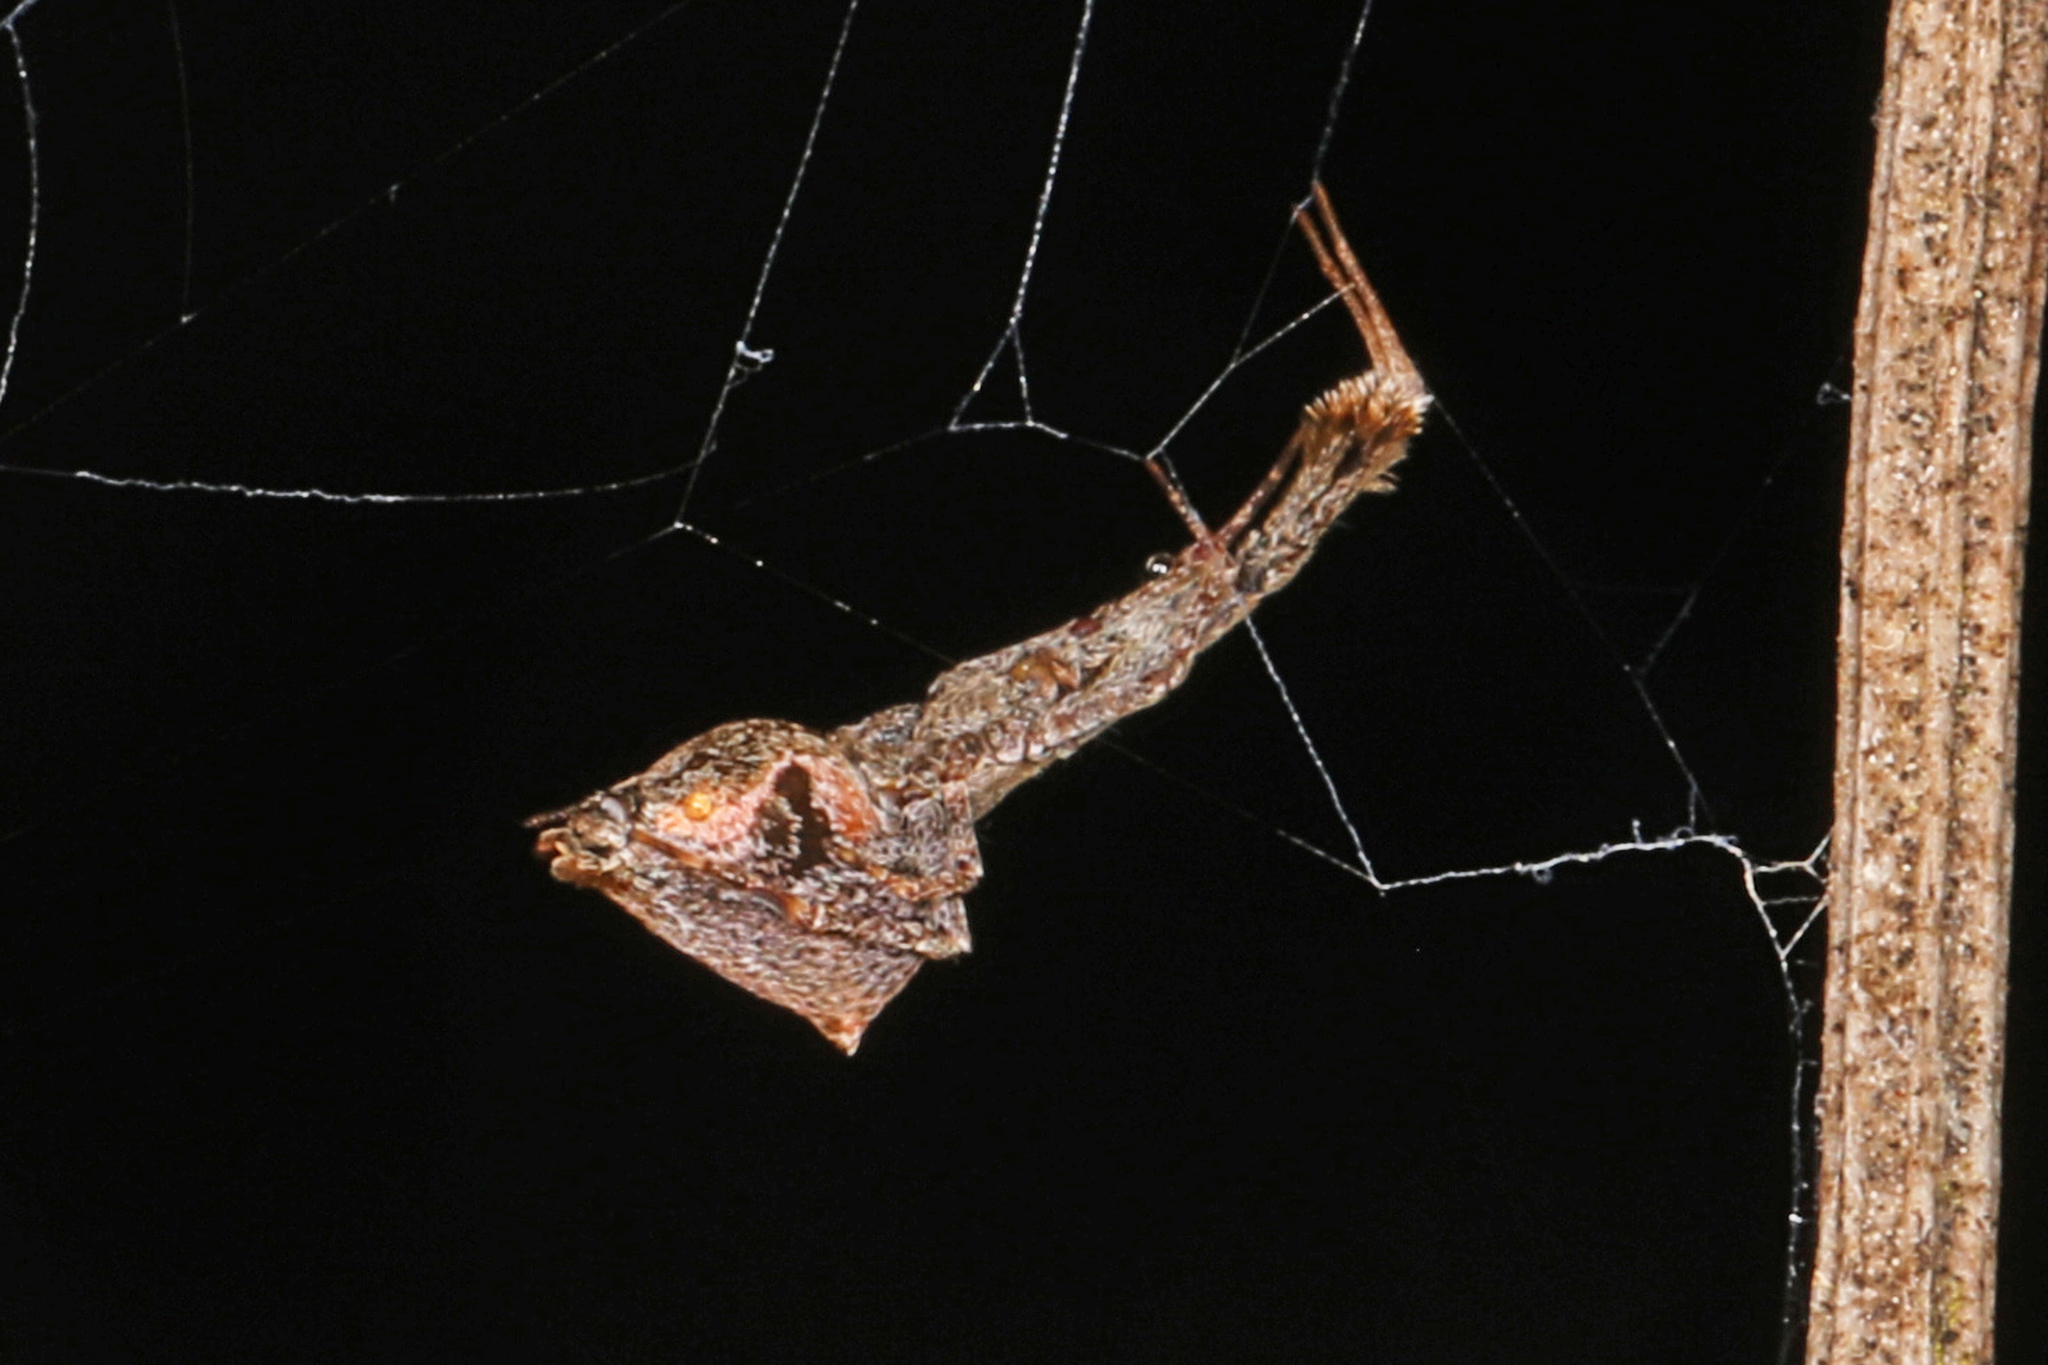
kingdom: Animalia
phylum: Arthropoda
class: Arachnida
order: Araneae
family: Uloboridae
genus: Uloborus
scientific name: Uloborus glomosus
